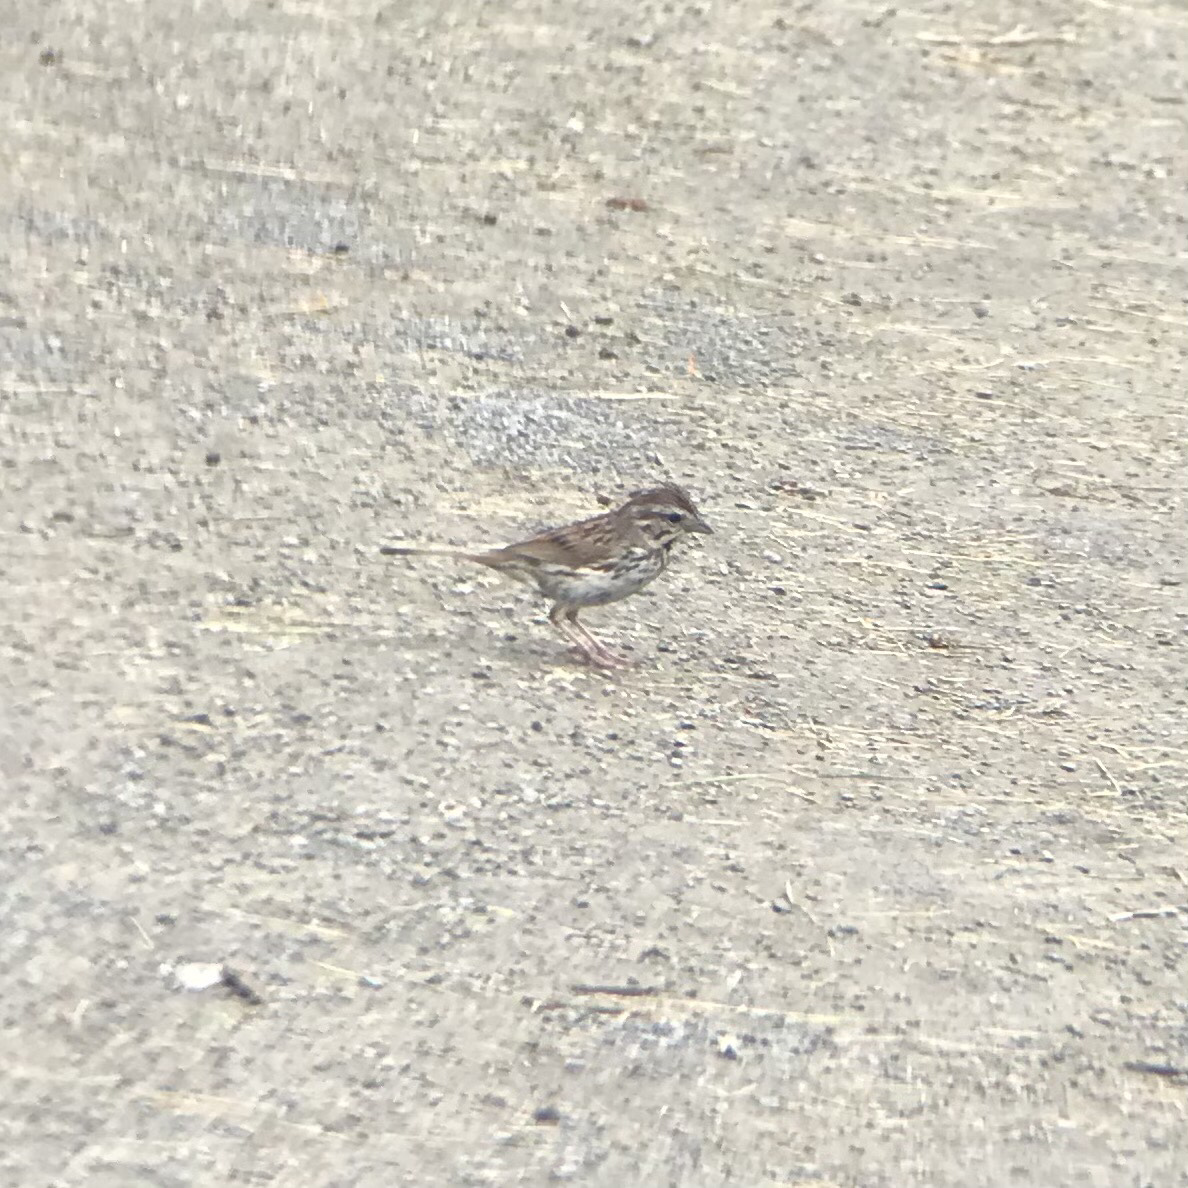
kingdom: Animalia
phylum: Chordata
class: Aves
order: Passeriformes
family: Passerellidae
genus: Melospiza
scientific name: Melospiza melodia
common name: Song sparrow
